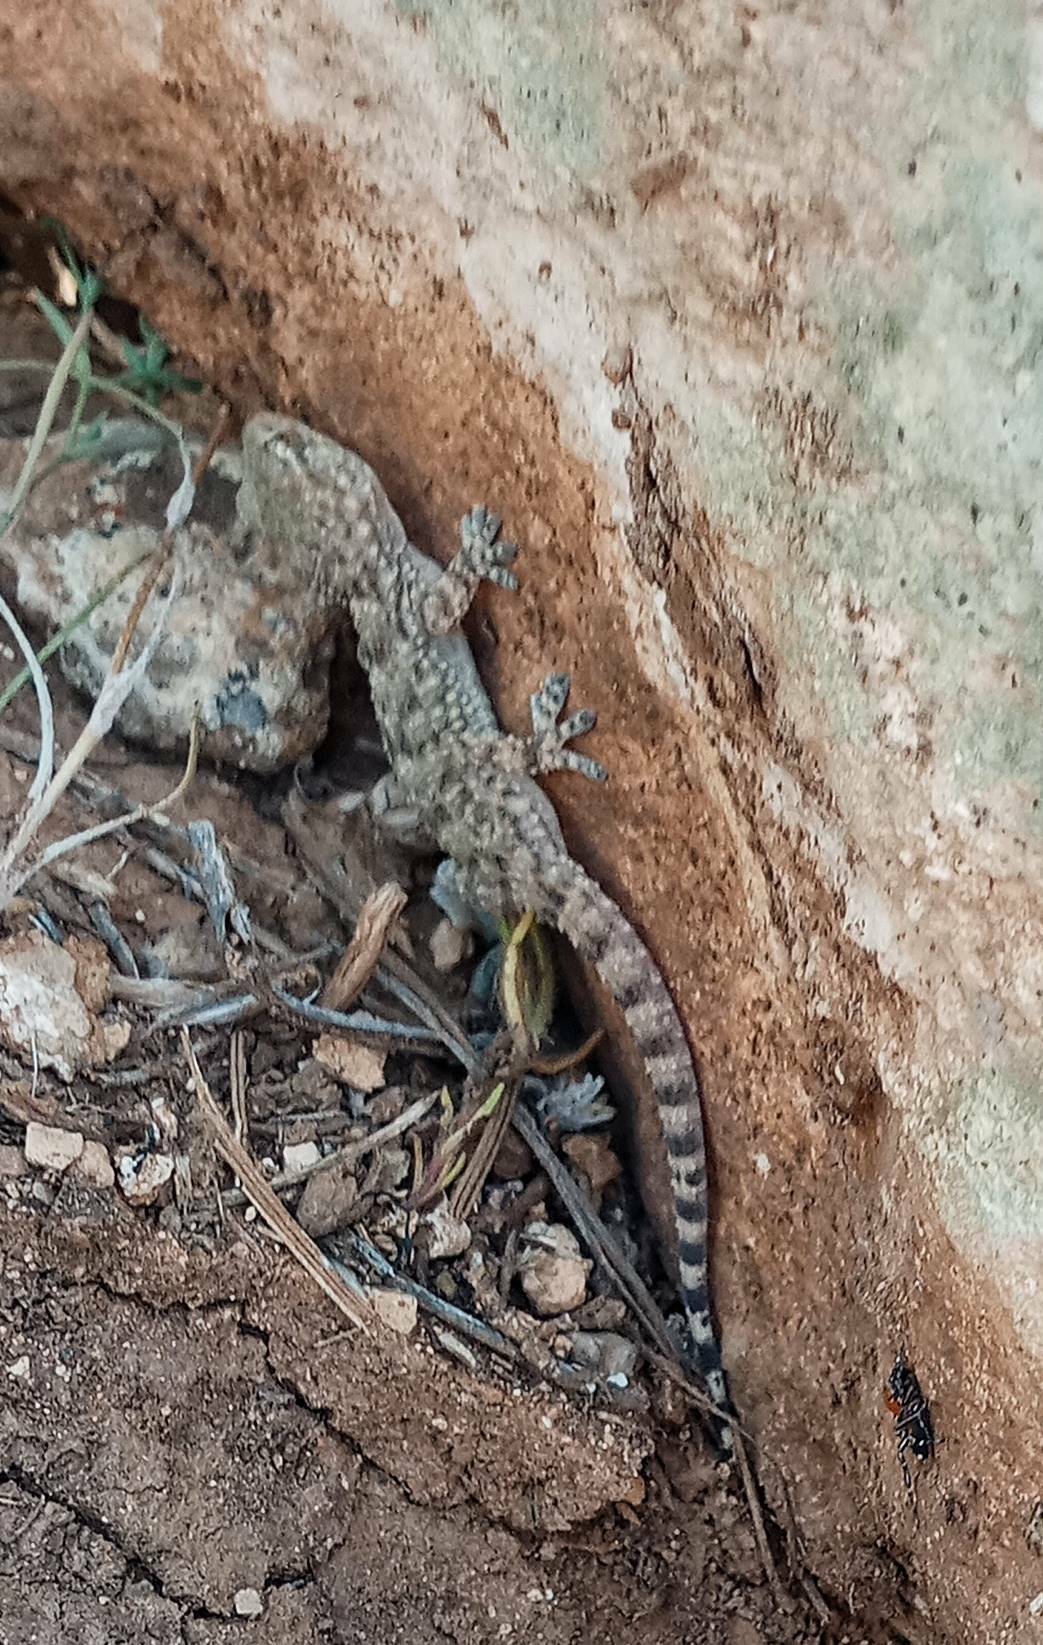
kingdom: Animalia
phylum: Chordata
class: Squamata
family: Phyllodactylidae
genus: Tarentola
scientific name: Tarentola mauritanica
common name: Moorish gecko
